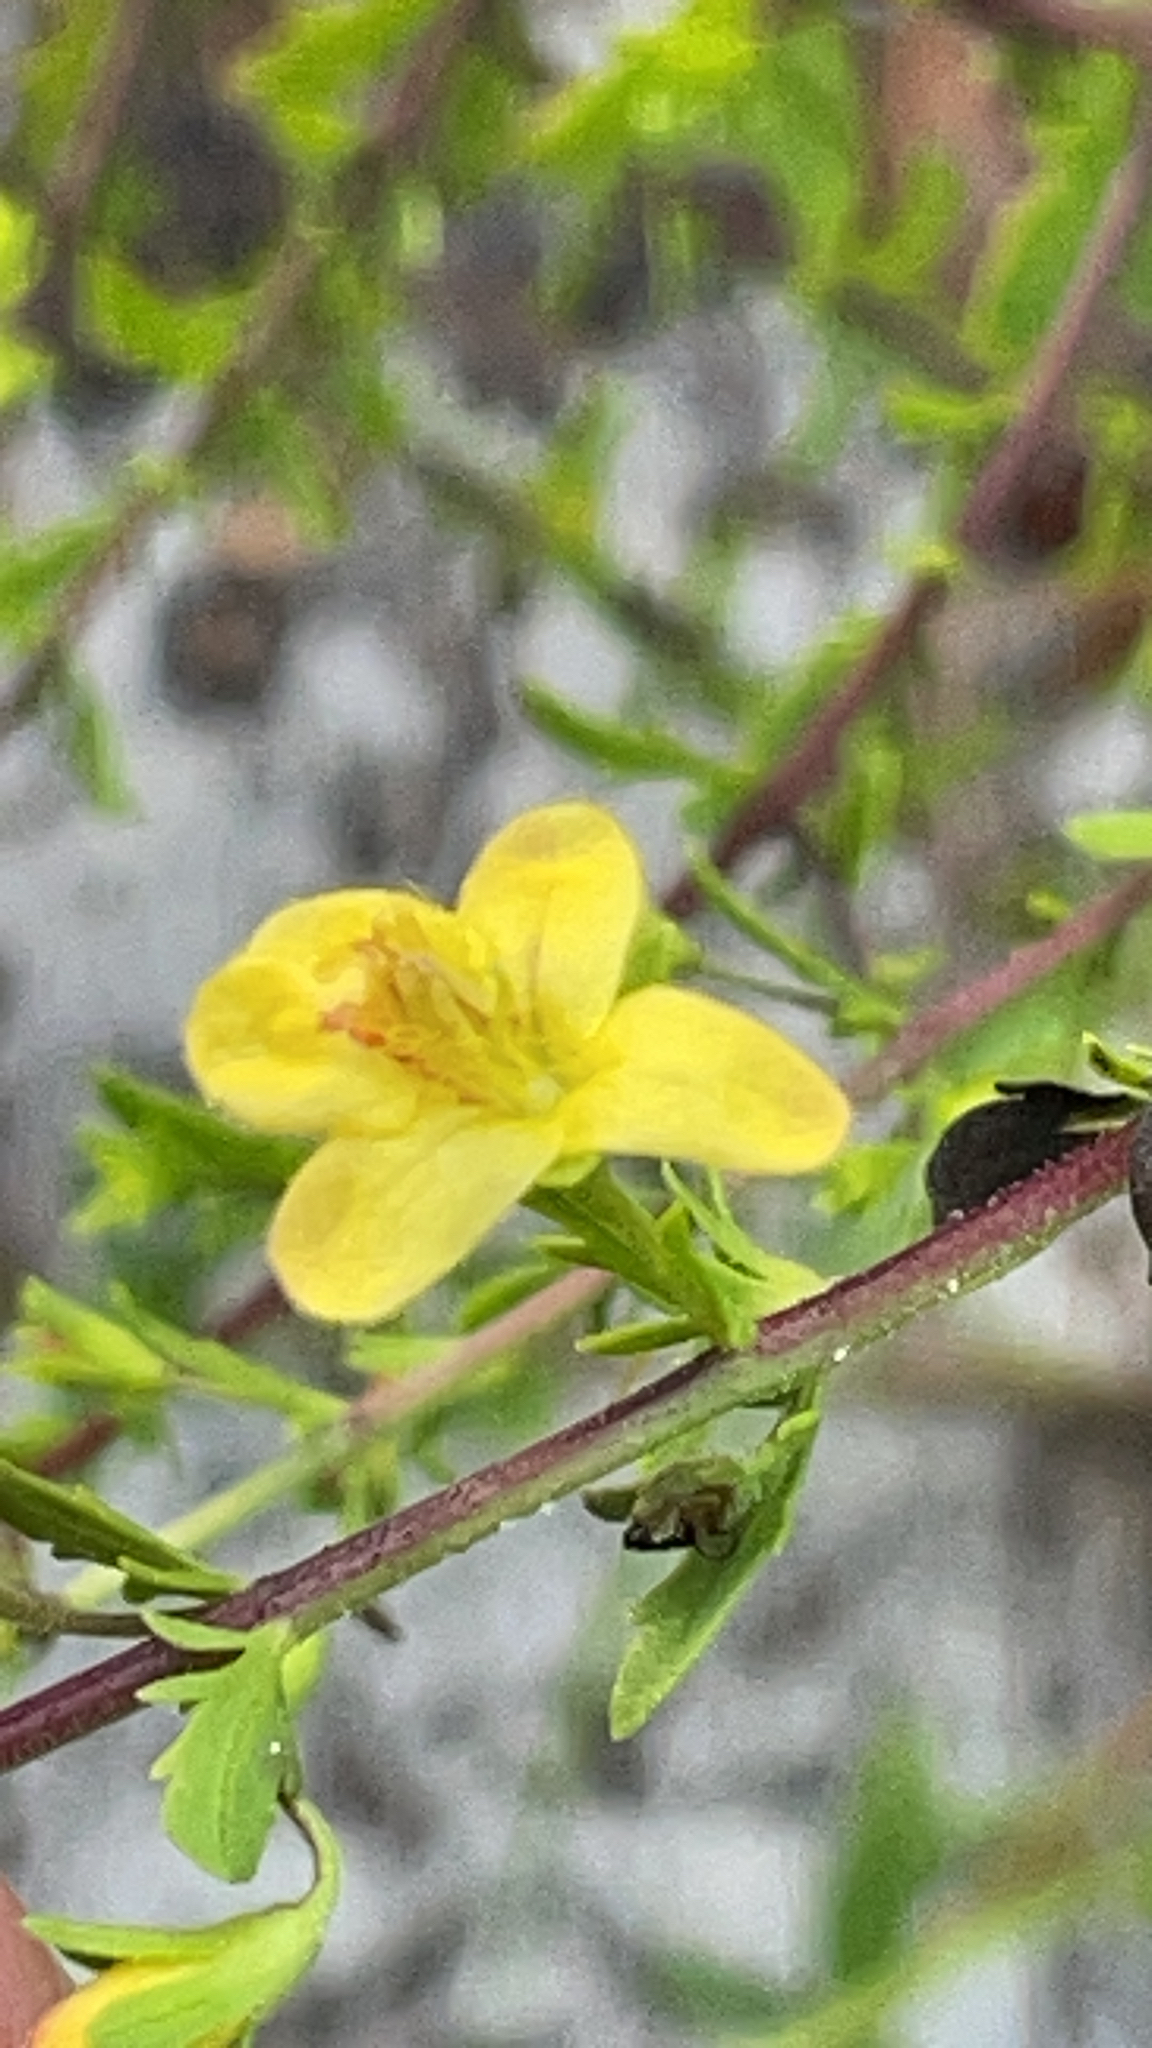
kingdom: Plantae
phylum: Tracheophyta
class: Magnoliopsida
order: Lamiales
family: Orobanchaceae
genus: Seymeria
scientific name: Seymeria pectinata
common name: Piedmont black-senna
